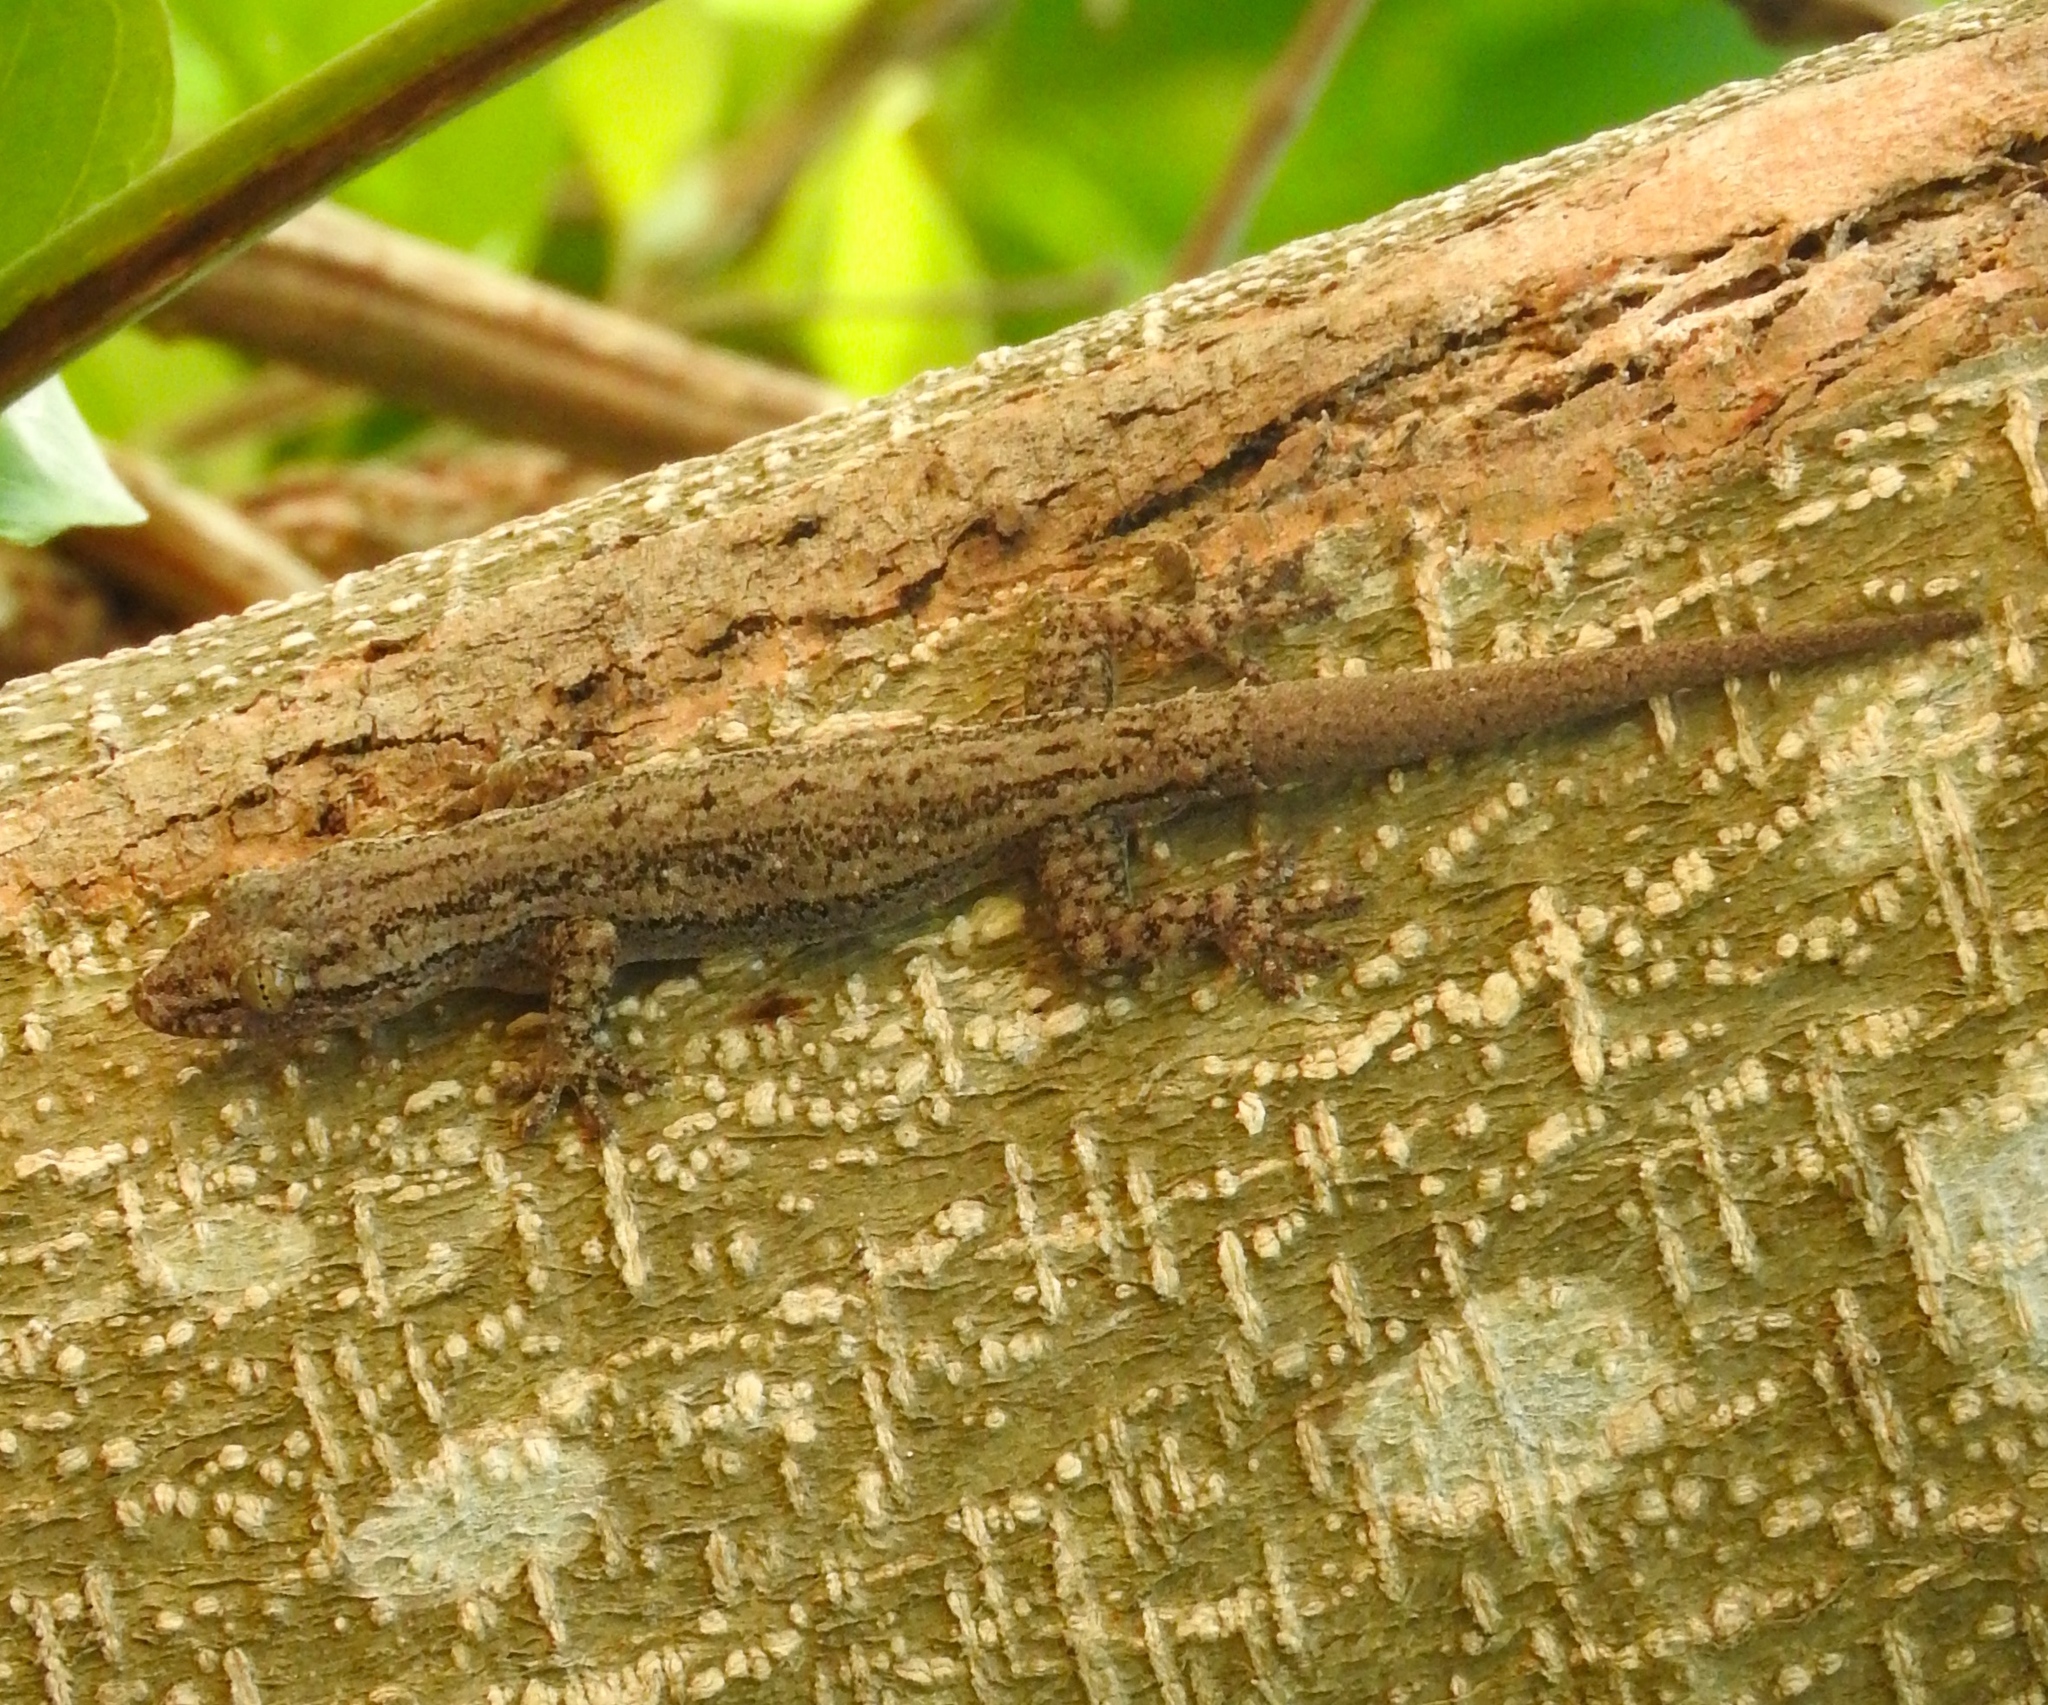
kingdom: Animalia
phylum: Chordata
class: Squamata
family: Gekkonidae
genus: Hemidactylus
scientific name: Hemidactylus frenatus
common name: Common house gecko
